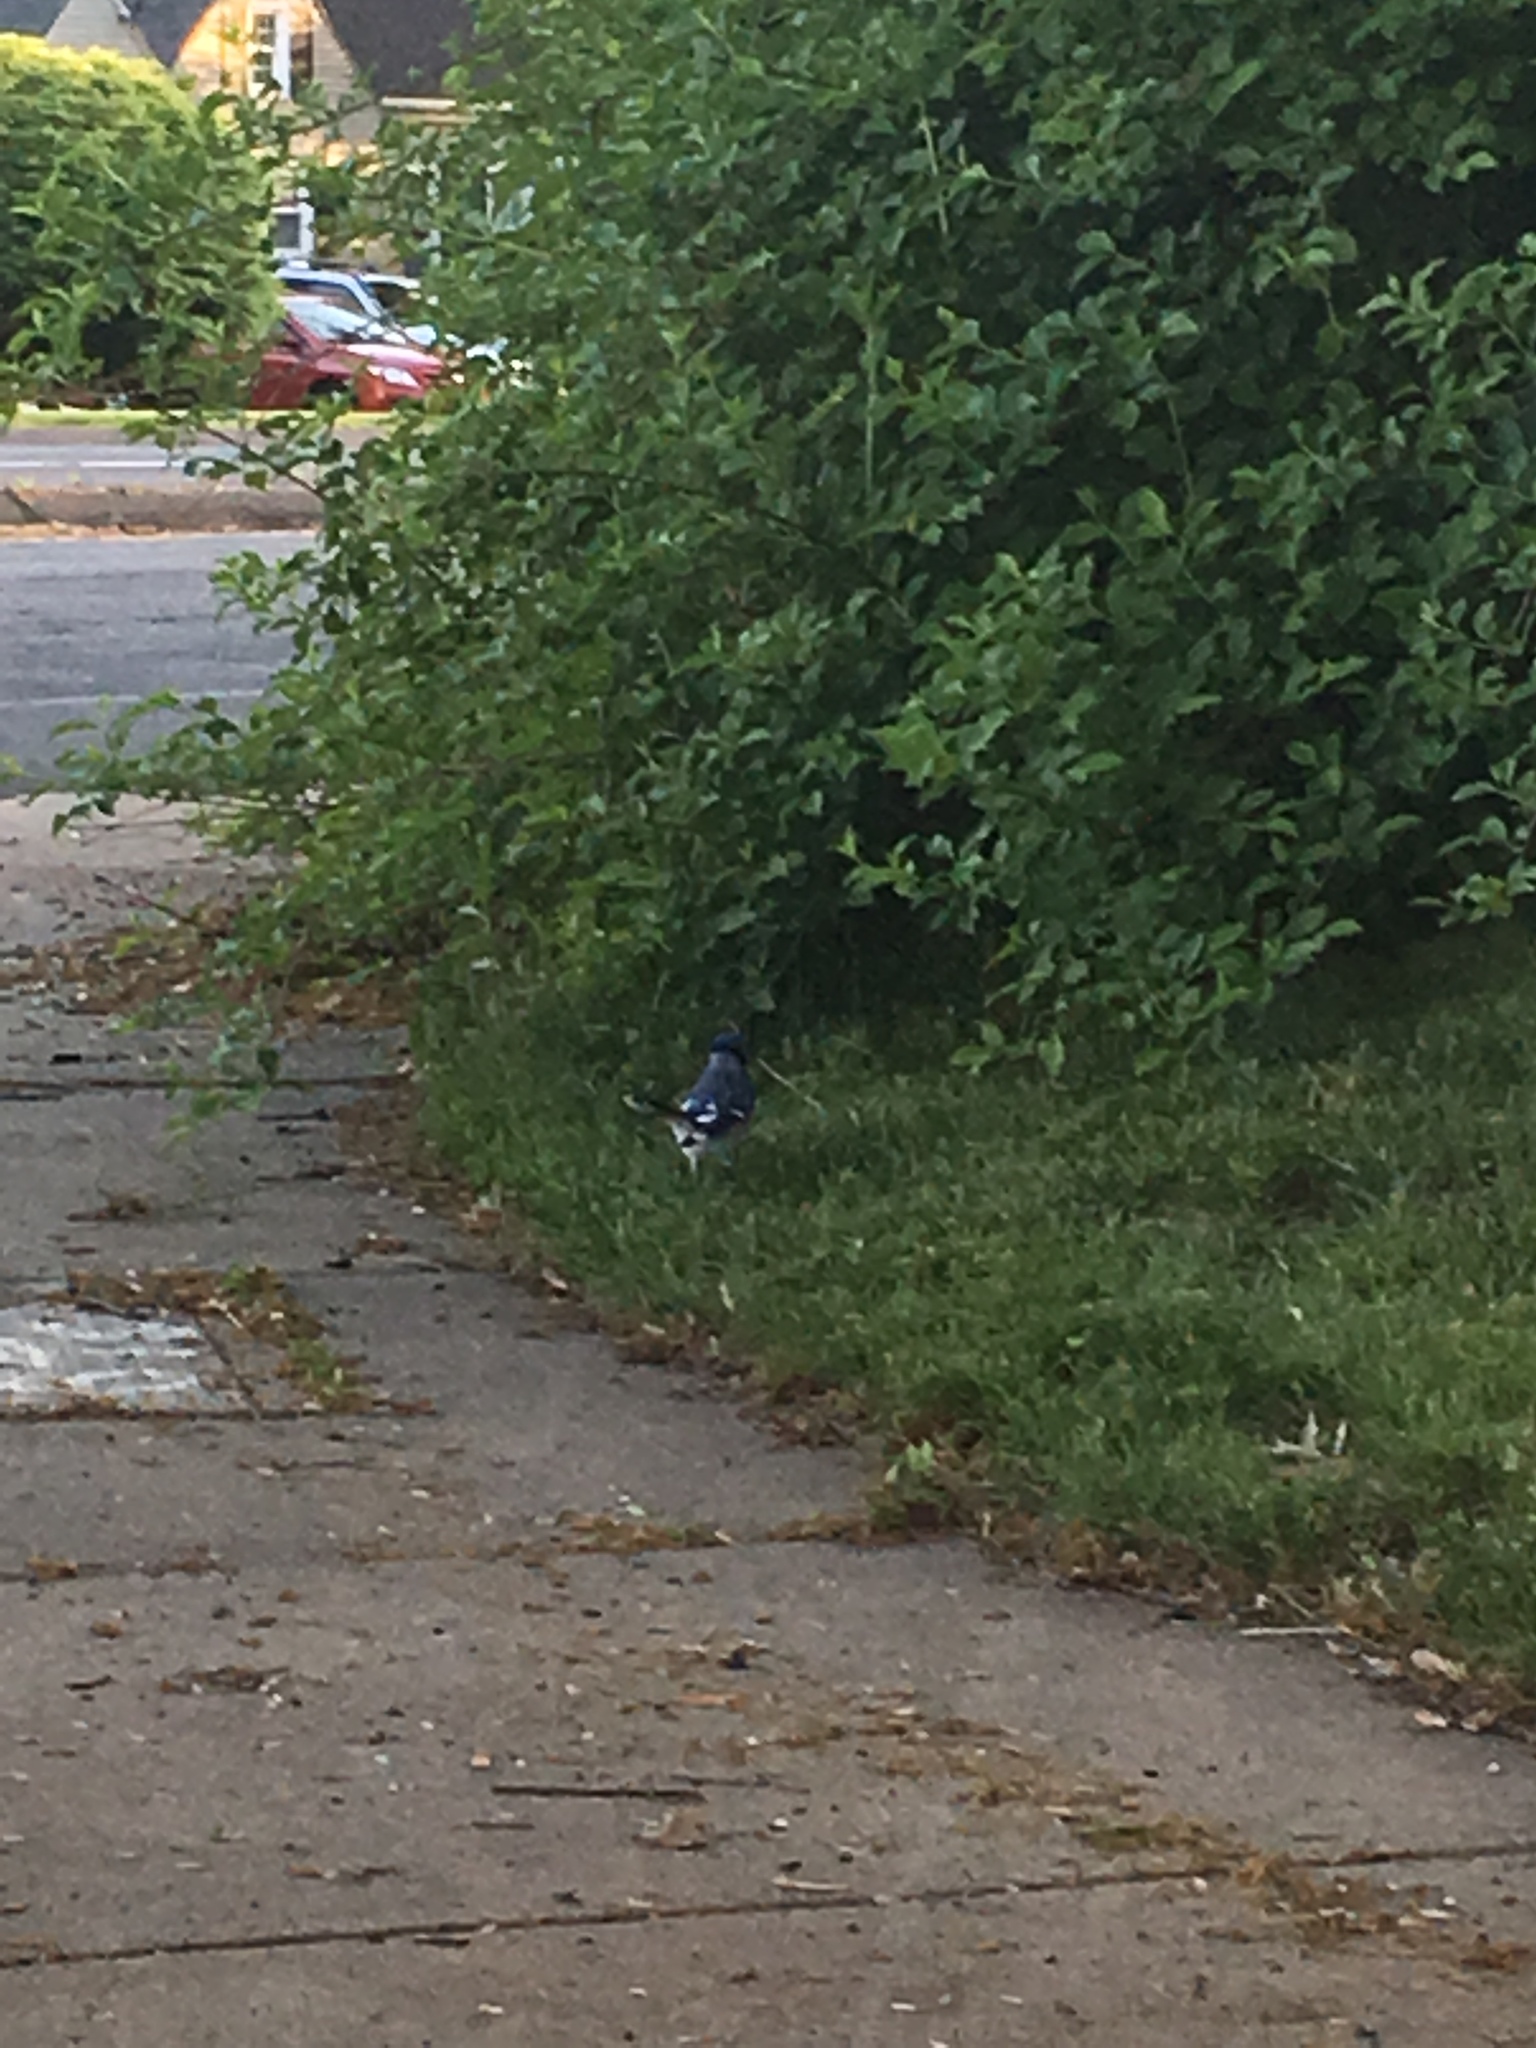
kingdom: Animalia
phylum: Chordata
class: Aves
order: Passeriformes
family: Corvidae
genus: Cyanocitta
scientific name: Cyanocitta cristata
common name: Blue jay
